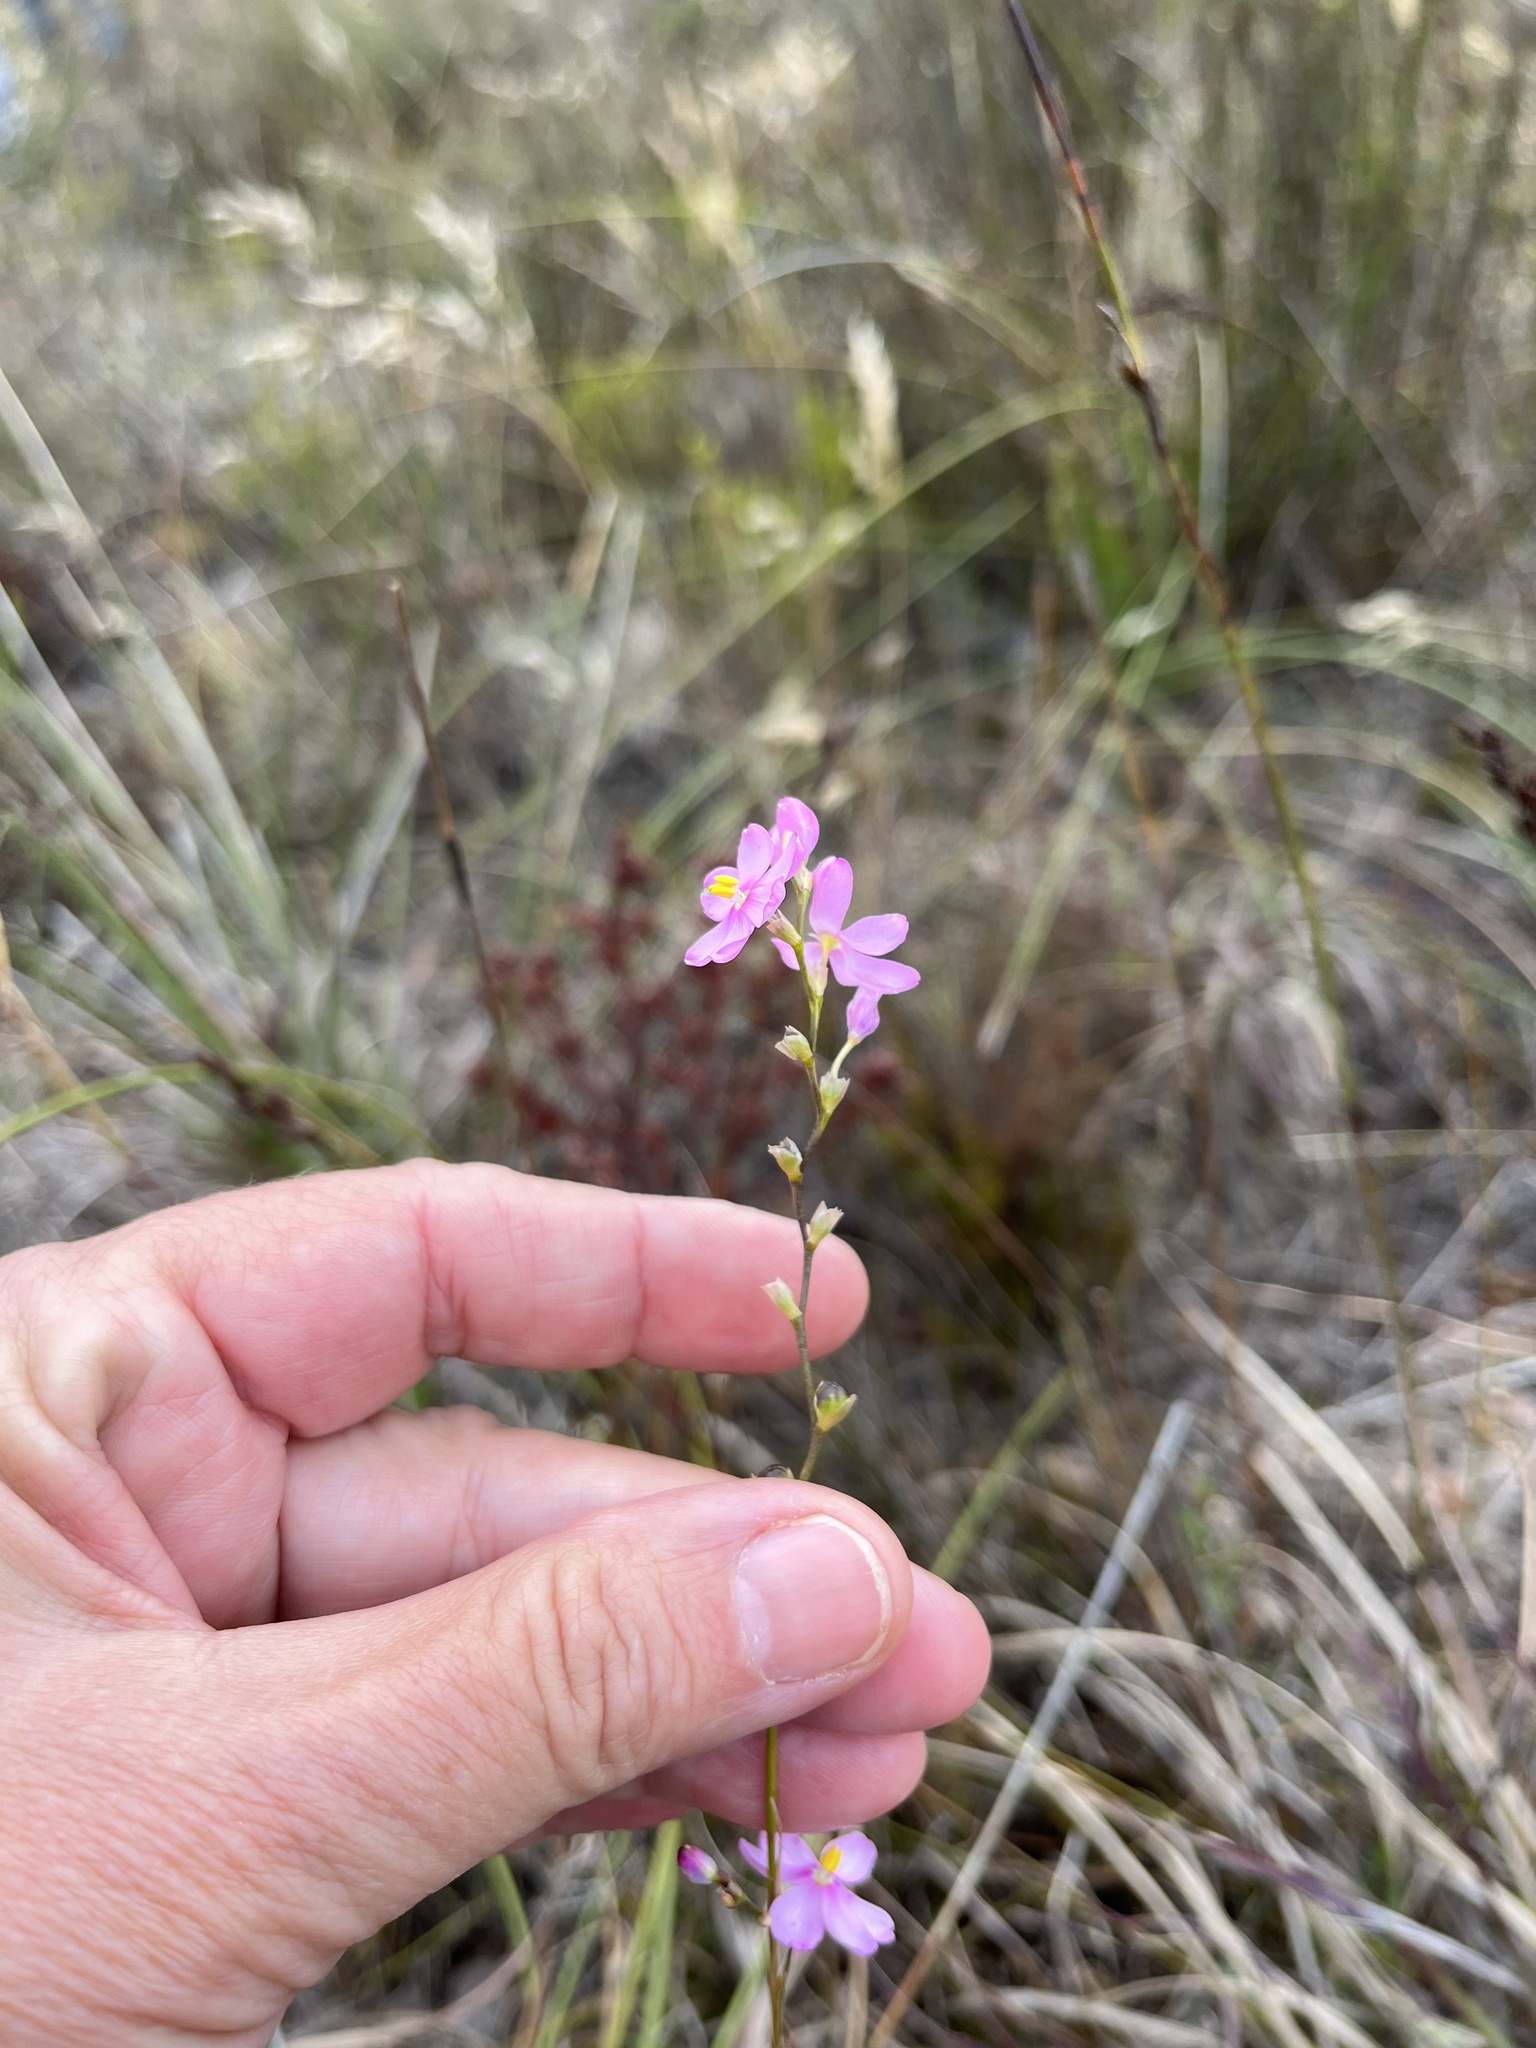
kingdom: Plantae
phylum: Tracheophyta
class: Liliopsida
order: Asparagales
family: Iridaceae
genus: Ixia
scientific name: Ixia stricta
